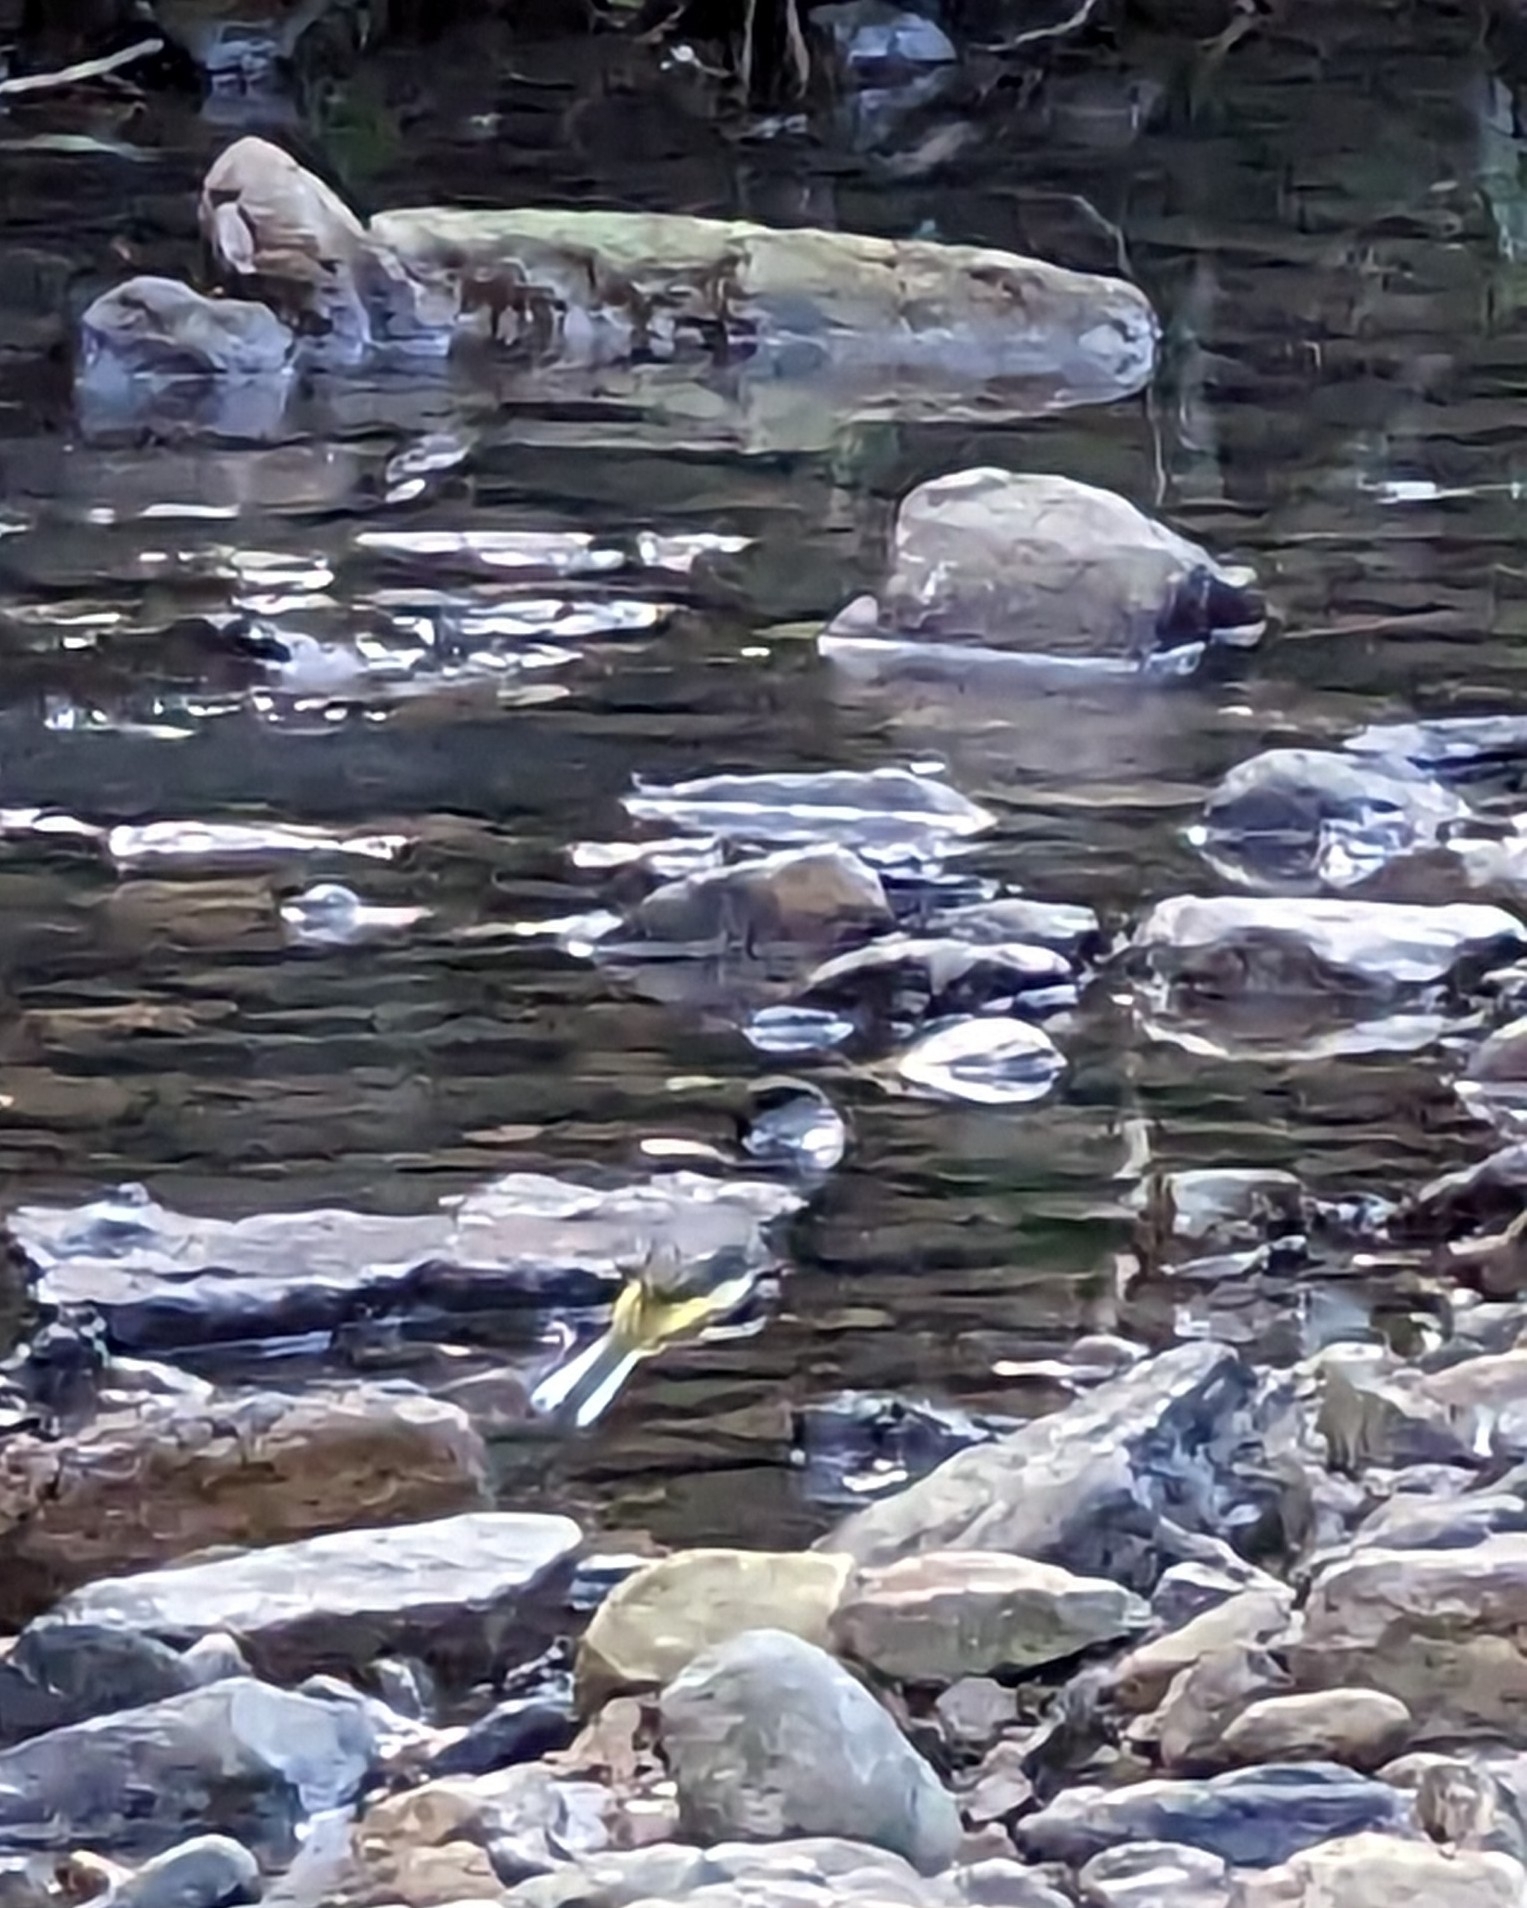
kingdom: Animalia
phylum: Chordata
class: Aves
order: Passeriformes
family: Motacillidae
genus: Motacilla
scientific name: Motacilla cinerea
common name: Grey wagtail
